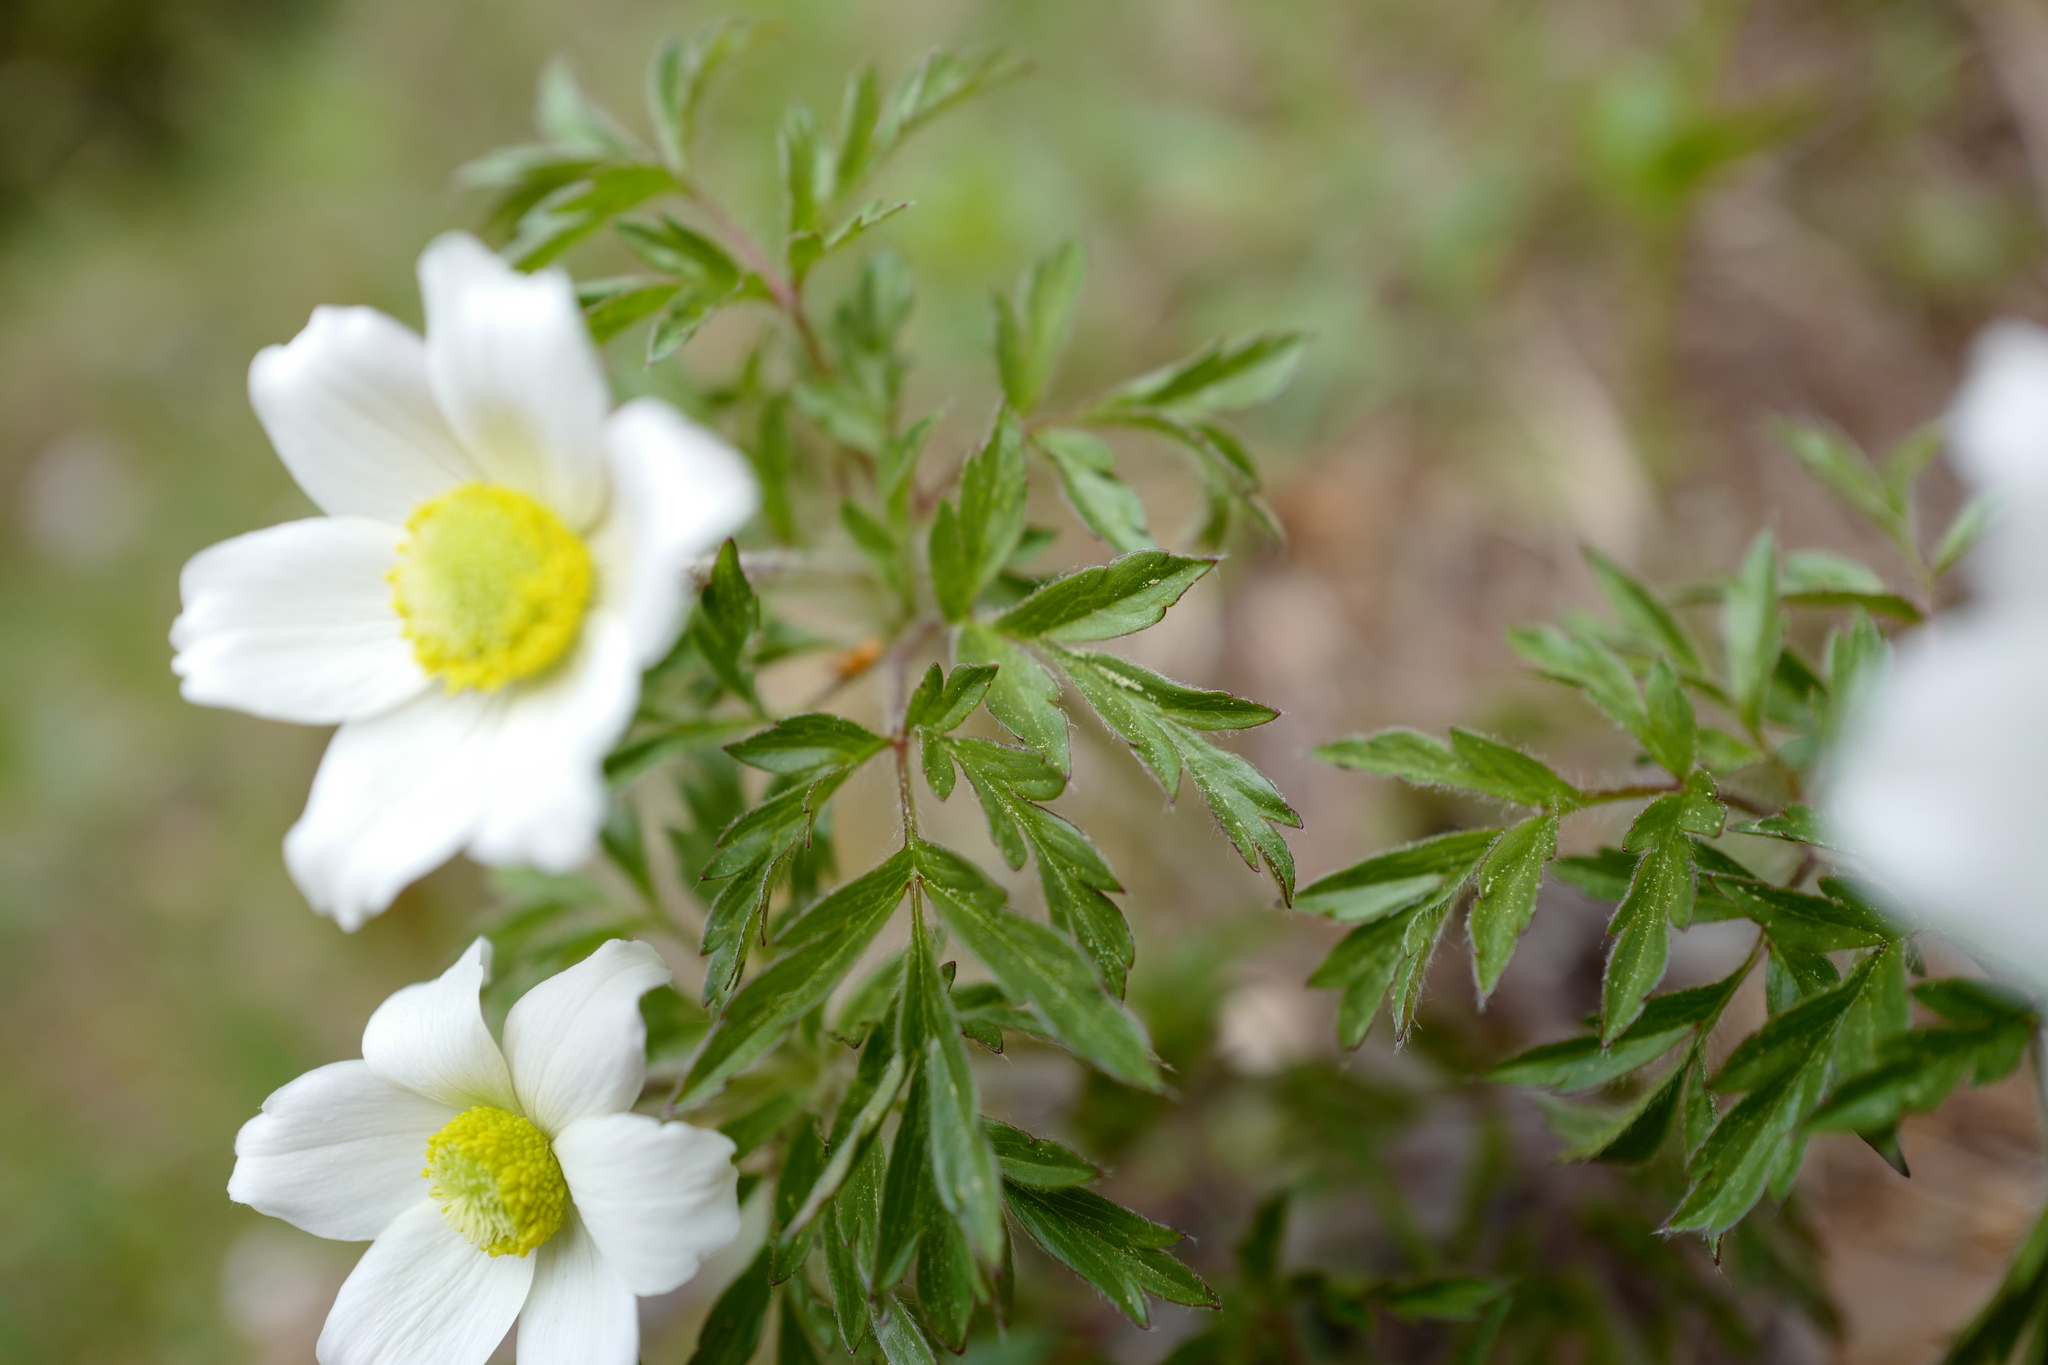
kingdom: Plantae
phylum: Tracheophyta
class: Magnoliopsida
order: Ranunculales
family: Ranunculaceae
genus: Pulsatilla
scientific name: Pulsatilla alpina
